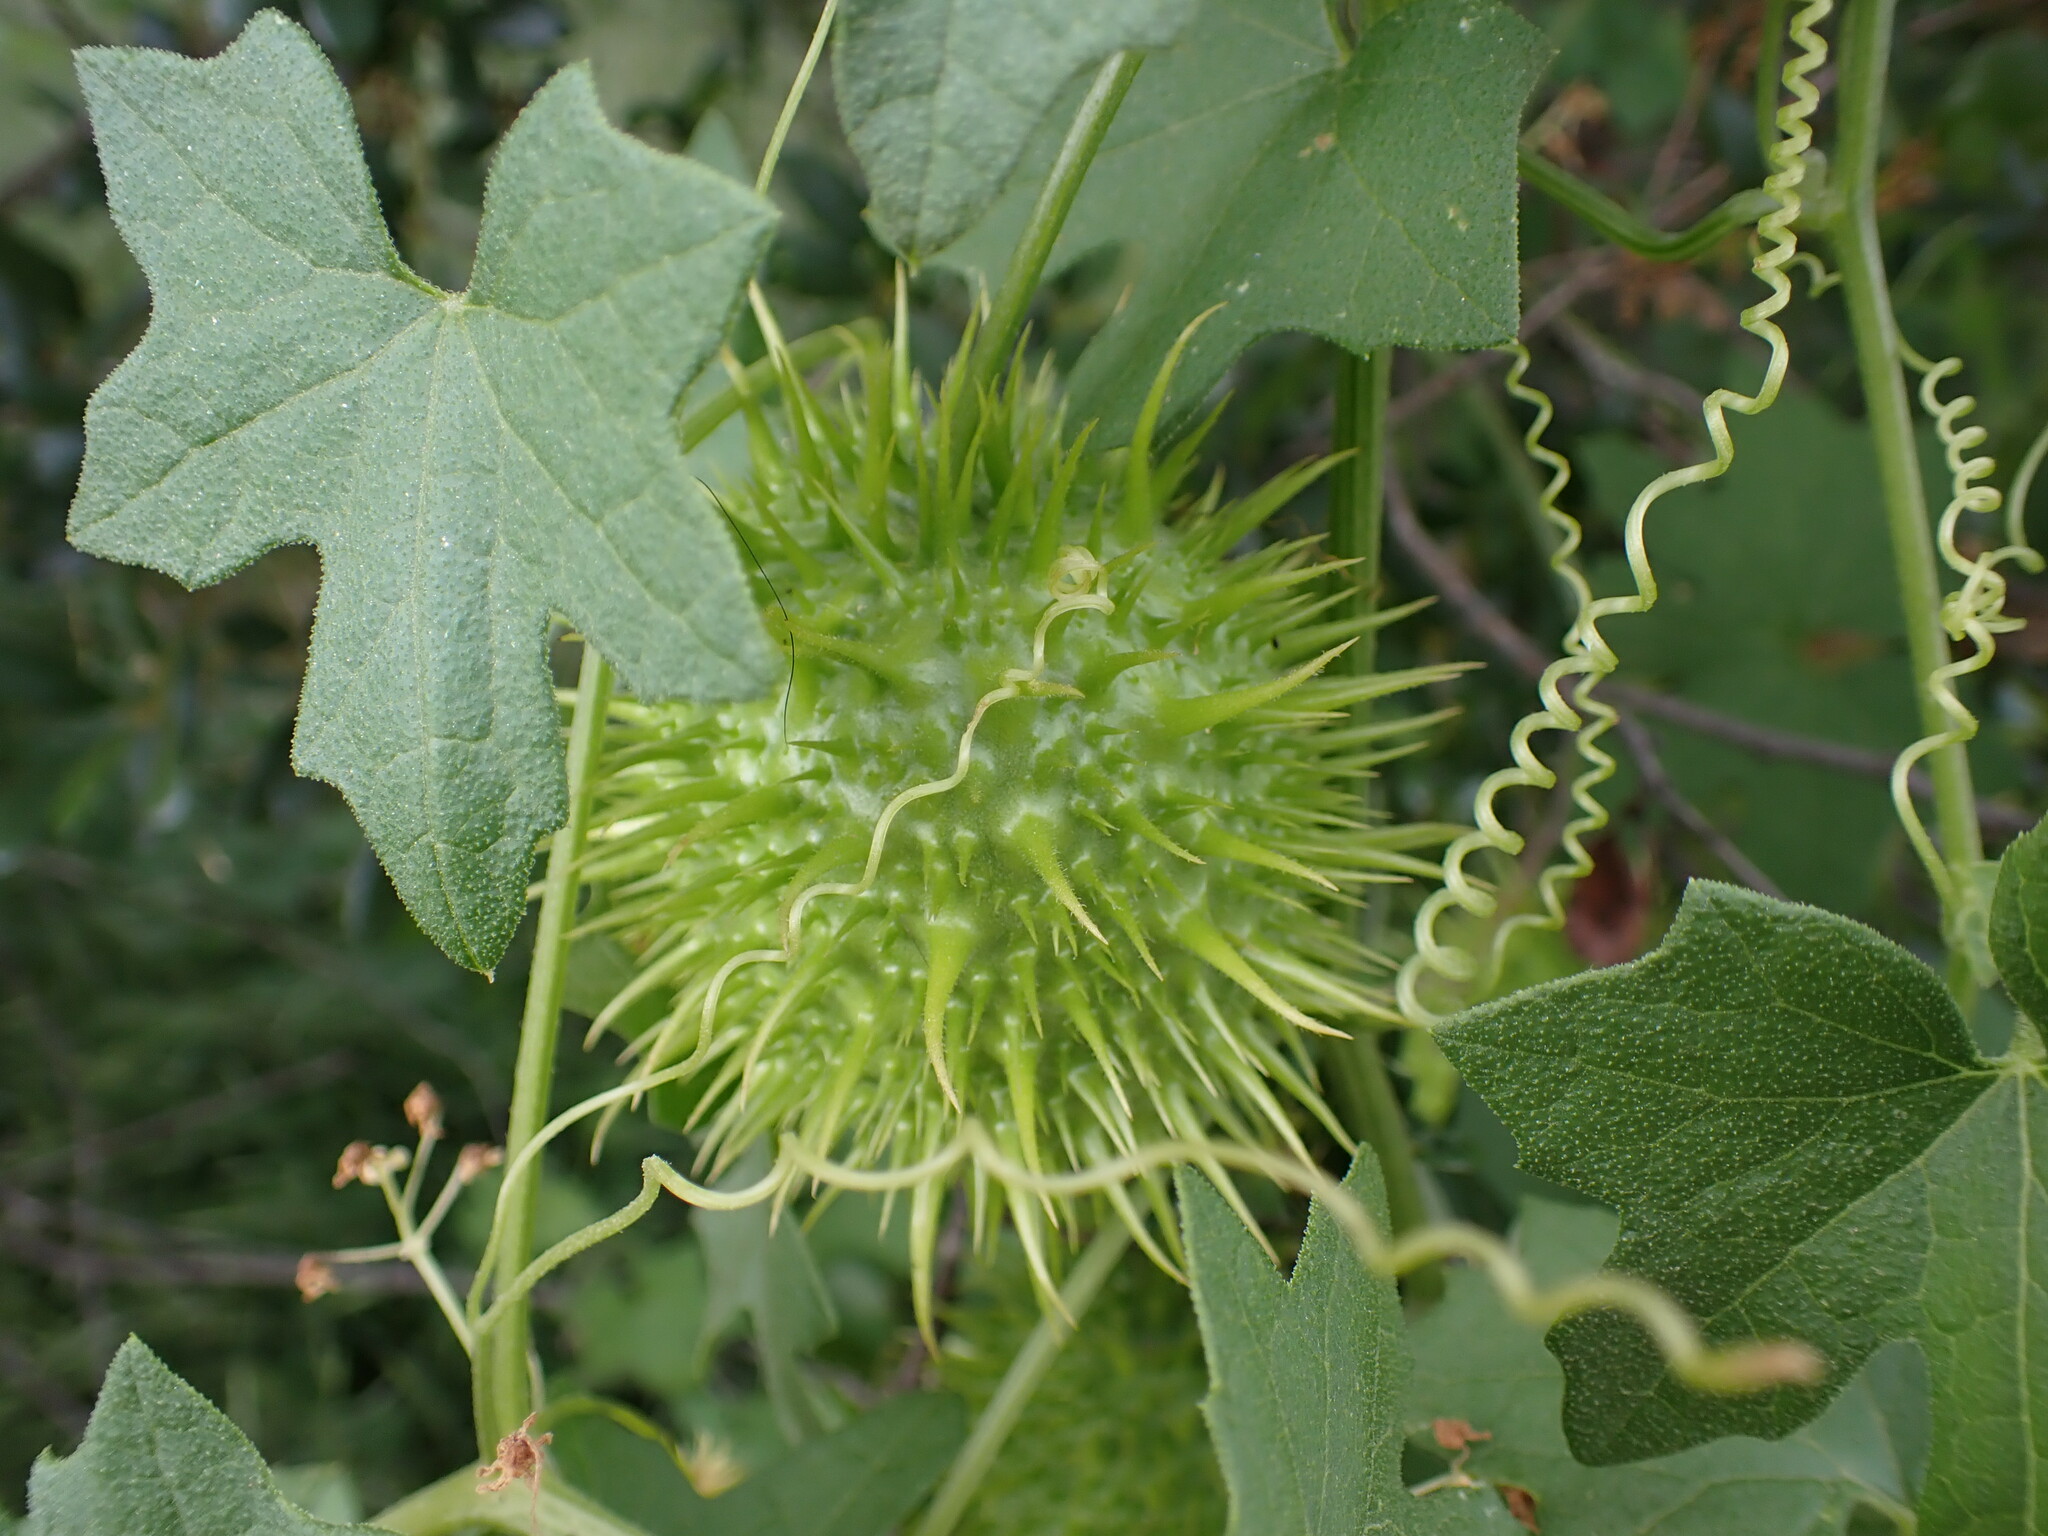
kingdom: Plantae
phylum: Tracheophyta
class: Magnoliopsida
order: Cucurbitales
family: Cucurbitaceae
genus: Marah
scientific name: Marah macrocarpa
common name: Cucamonga manroot
